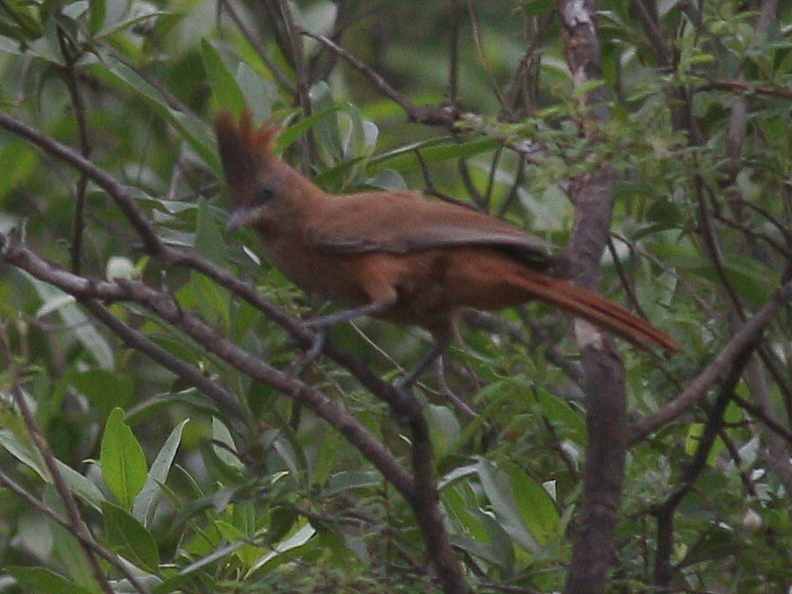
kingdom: Animalia
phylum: Chordata
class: Aves
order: Passeriformes
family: Furnariidae
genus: Pseudoseisura
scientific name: Pseudoseisura lophotes
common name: Brown cacholote
